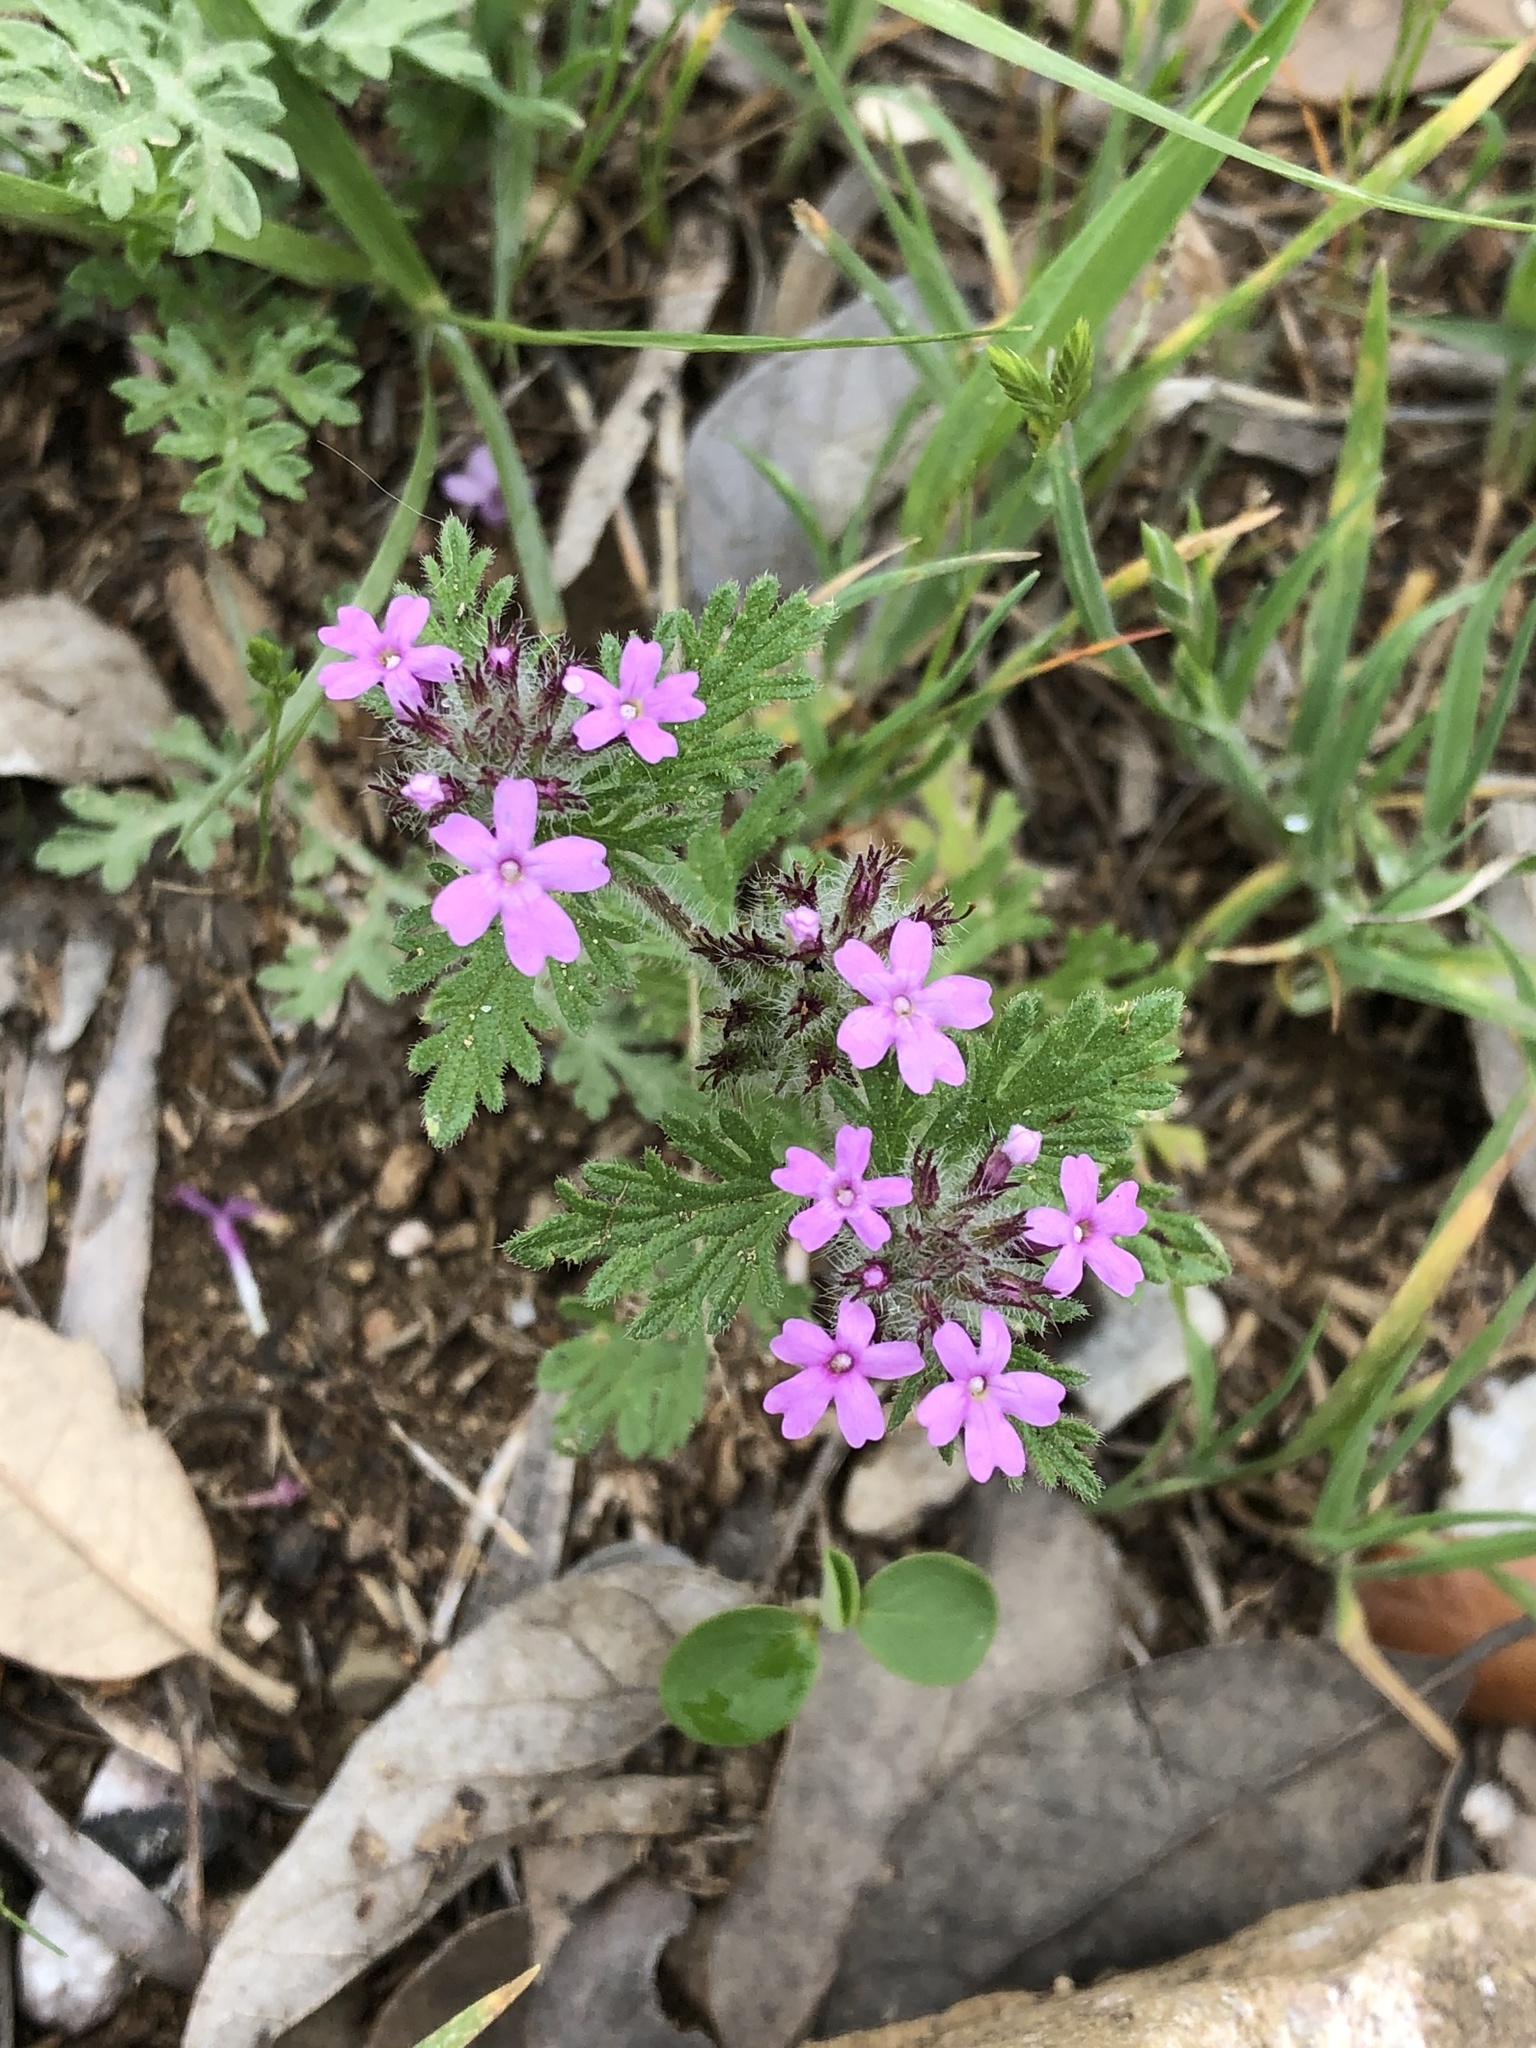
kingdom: Plantae
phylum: Tracheophyta
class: Magnoliopsida
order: Lamiales
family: Verbenaceae
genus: Verbena
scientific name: Verbena pumila
